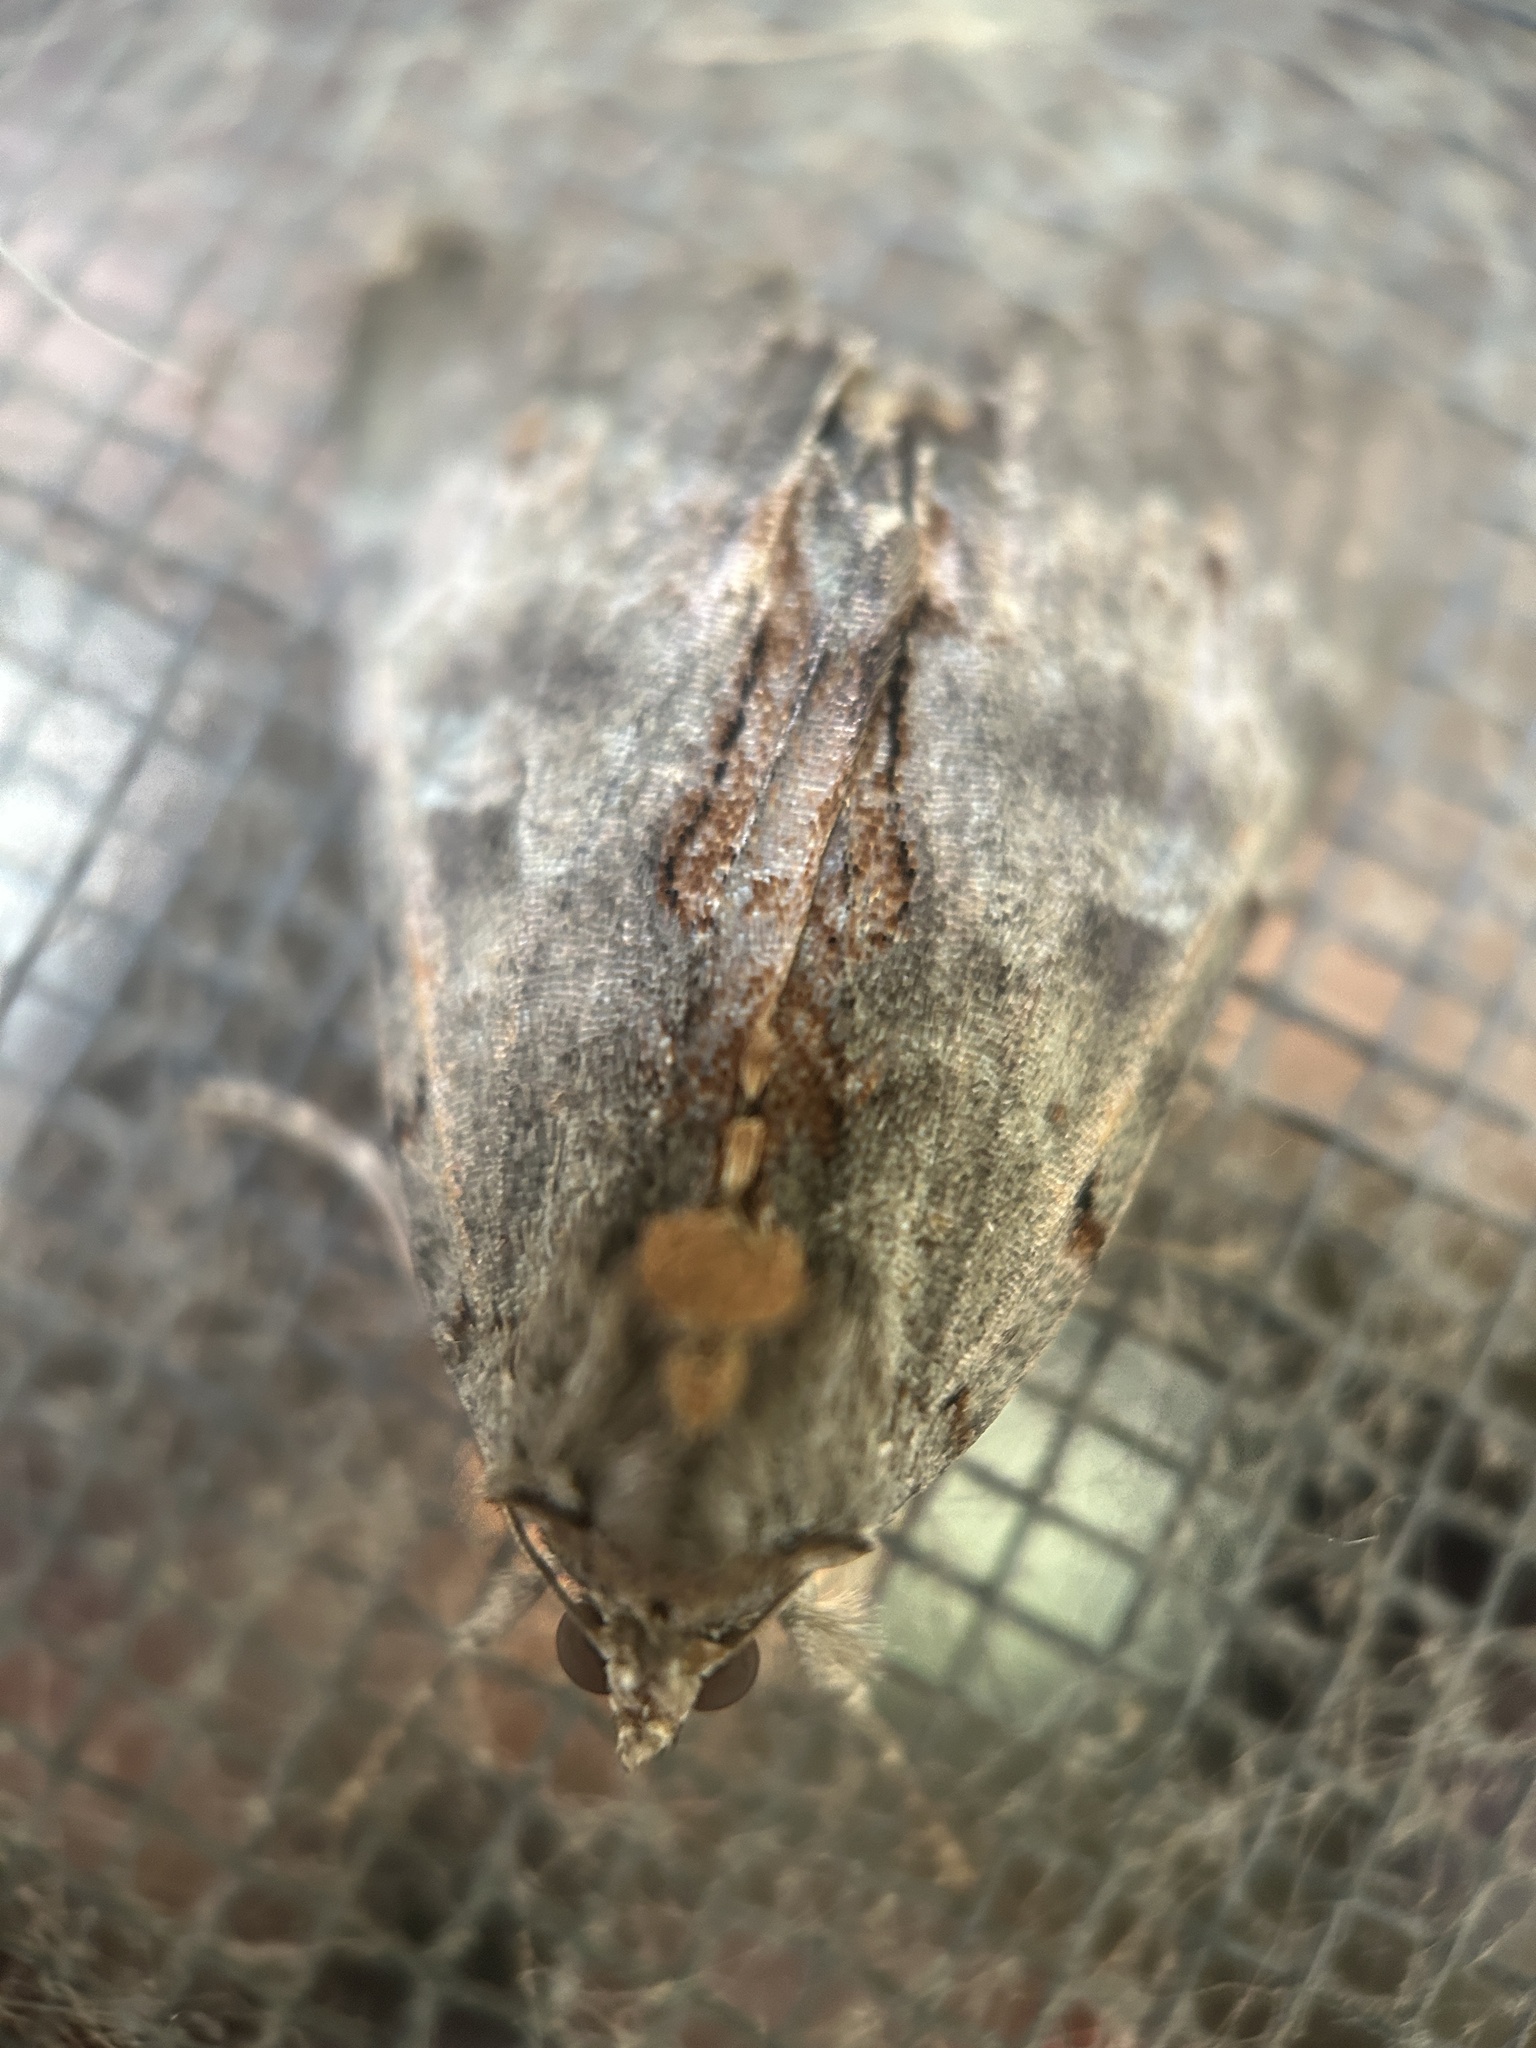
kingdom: Animalia
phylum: Arthropoda
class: Insecta
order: Lepidoptera
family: Erebidae
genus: Catocala
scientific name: Catocala grynea
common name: Woody underwing
